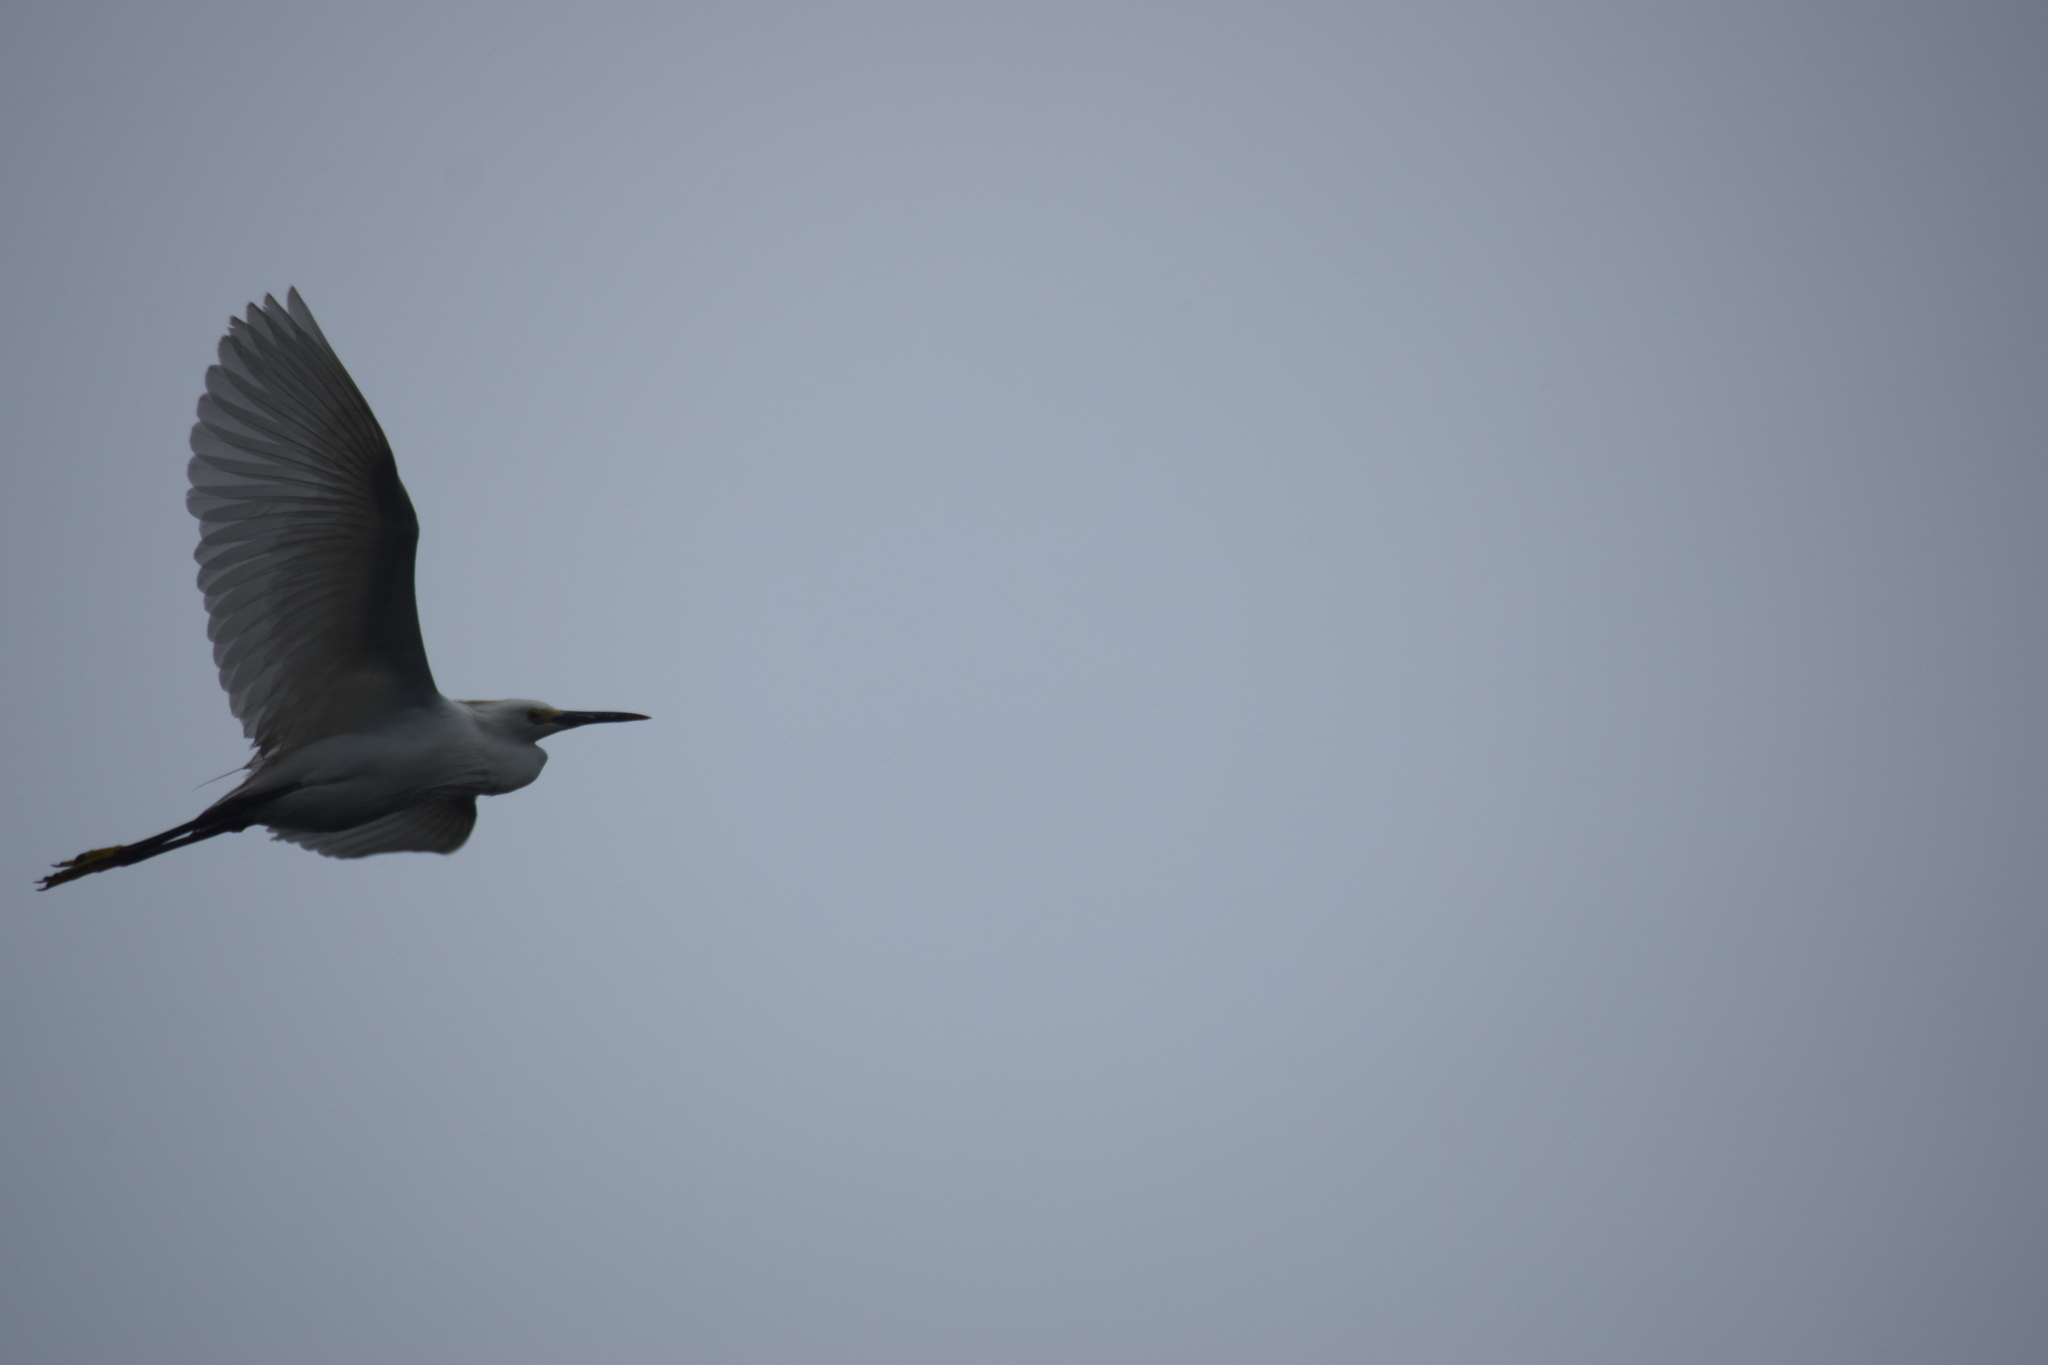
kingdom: Animalia
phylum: Chordata
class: Aves
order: Pelecaniformes
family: Ardeidae
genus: Egretta
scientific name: Egretta thula
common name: Snowy egret
